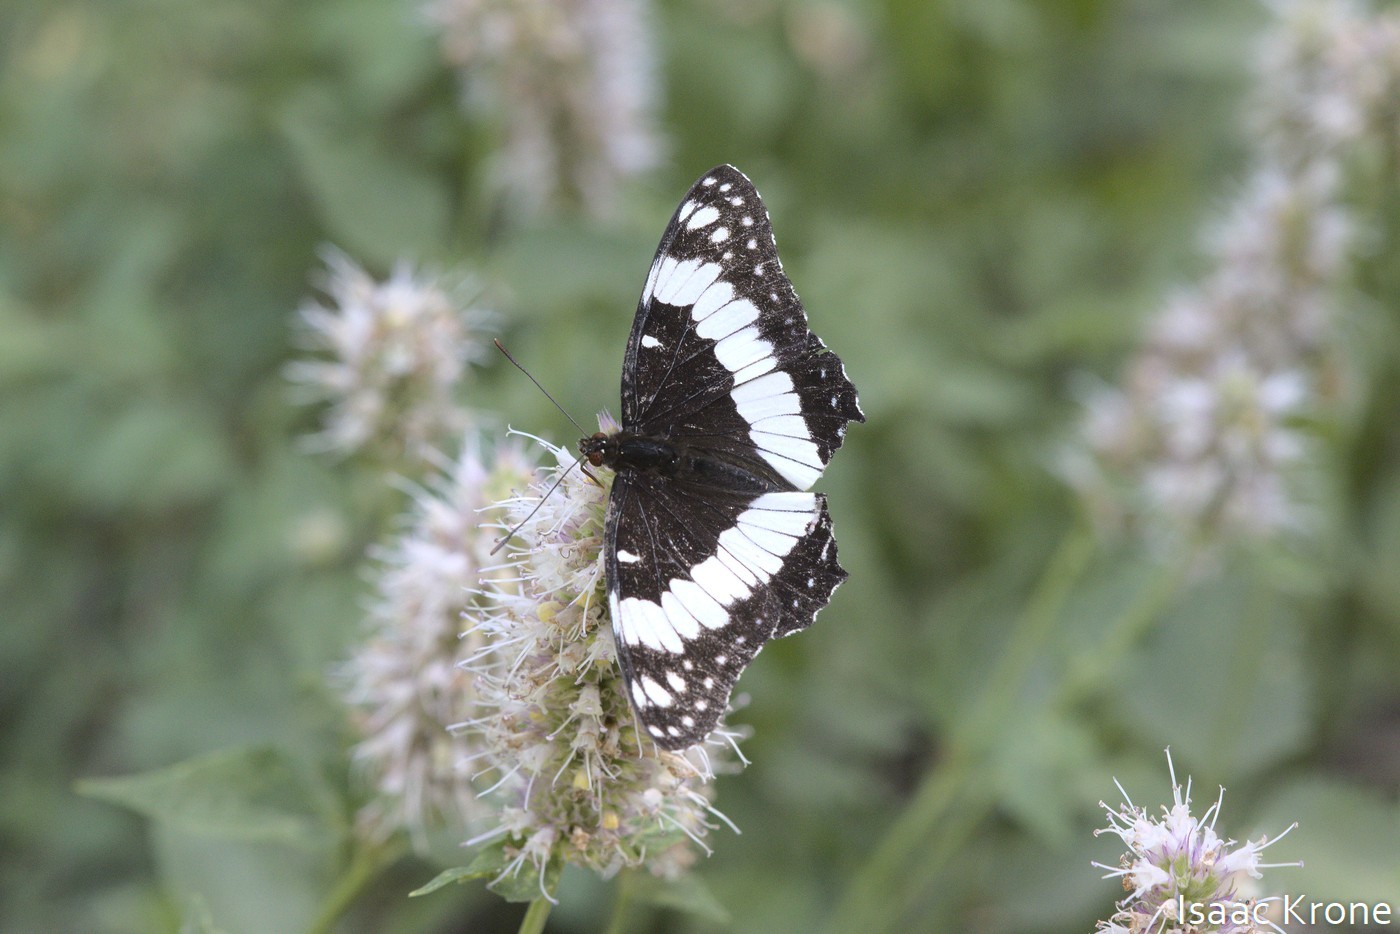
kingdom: Animalia
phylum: Arthropoda
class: Insecta
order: Lepidoptera
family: Nymphalidae
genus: Limenitis
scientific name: Limenitis weidemeyerii
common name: Weidemeyer's admiral
